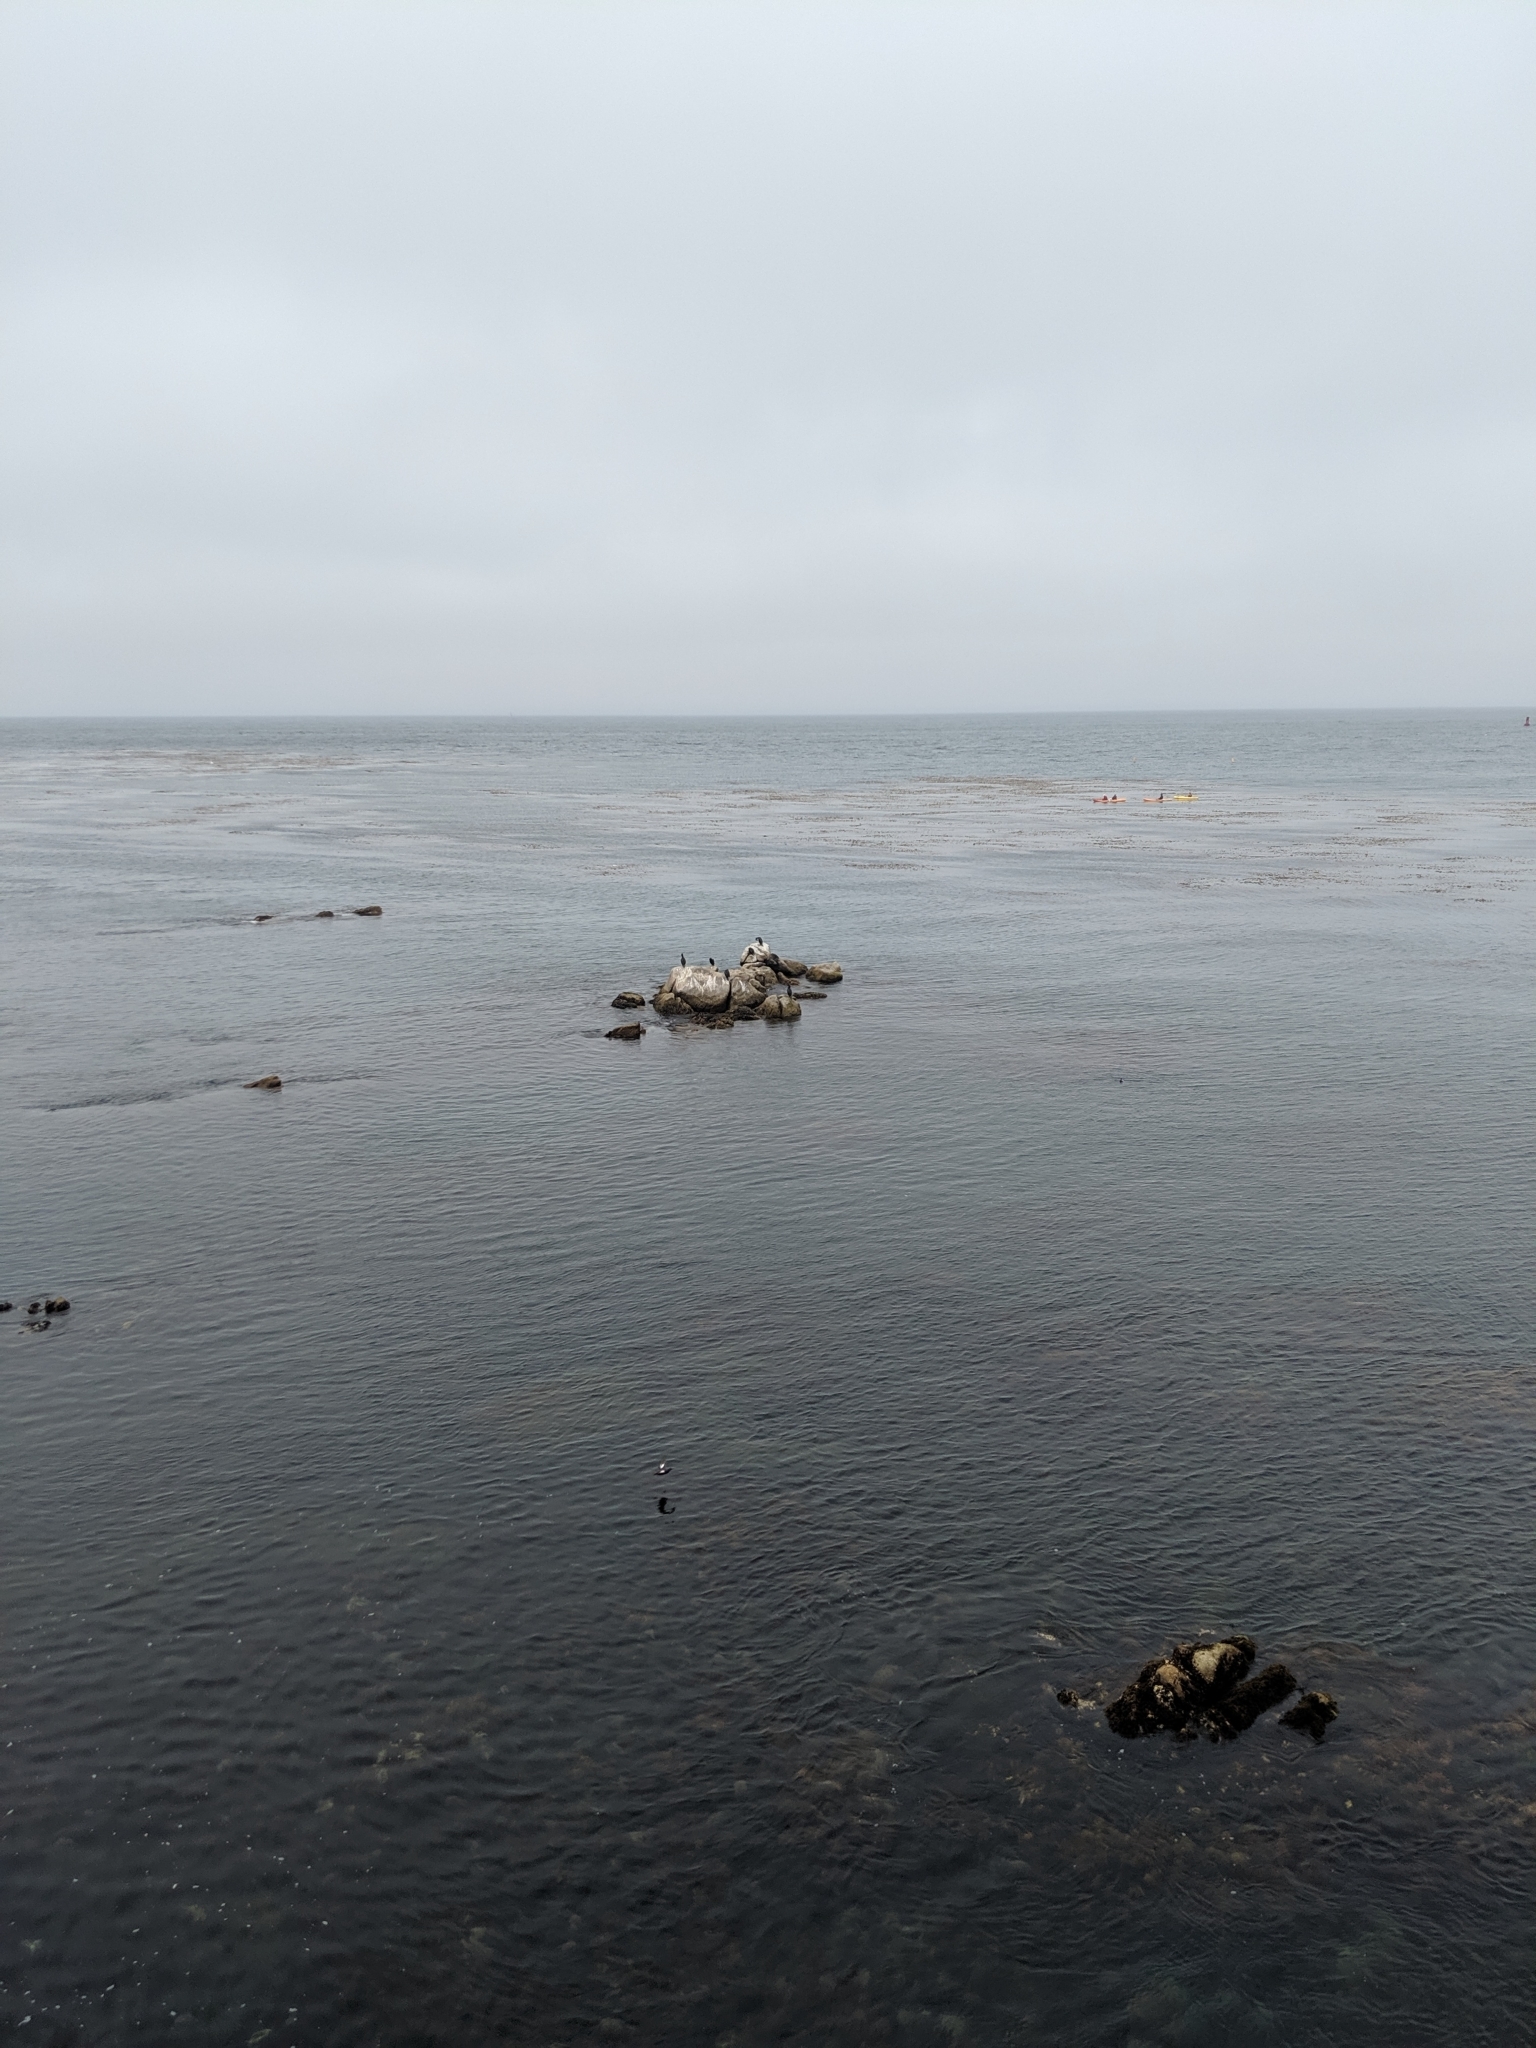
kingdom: Animalia
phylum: Chordata
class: Mammalia
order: Carnivora
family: Phocidae
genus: Phoca
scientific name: Phoca vitulina
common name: Harbor seal
